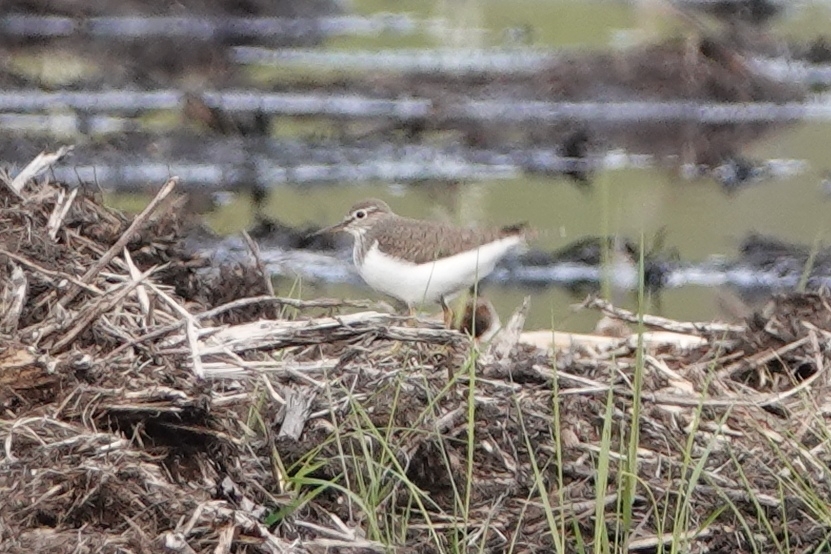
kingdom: Animalia
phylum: Chordata
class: Aves
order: Charadriiformes
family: Scolopacidae
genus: Actitis
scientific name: Actitis hypoleucos
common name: Common sandpiper
